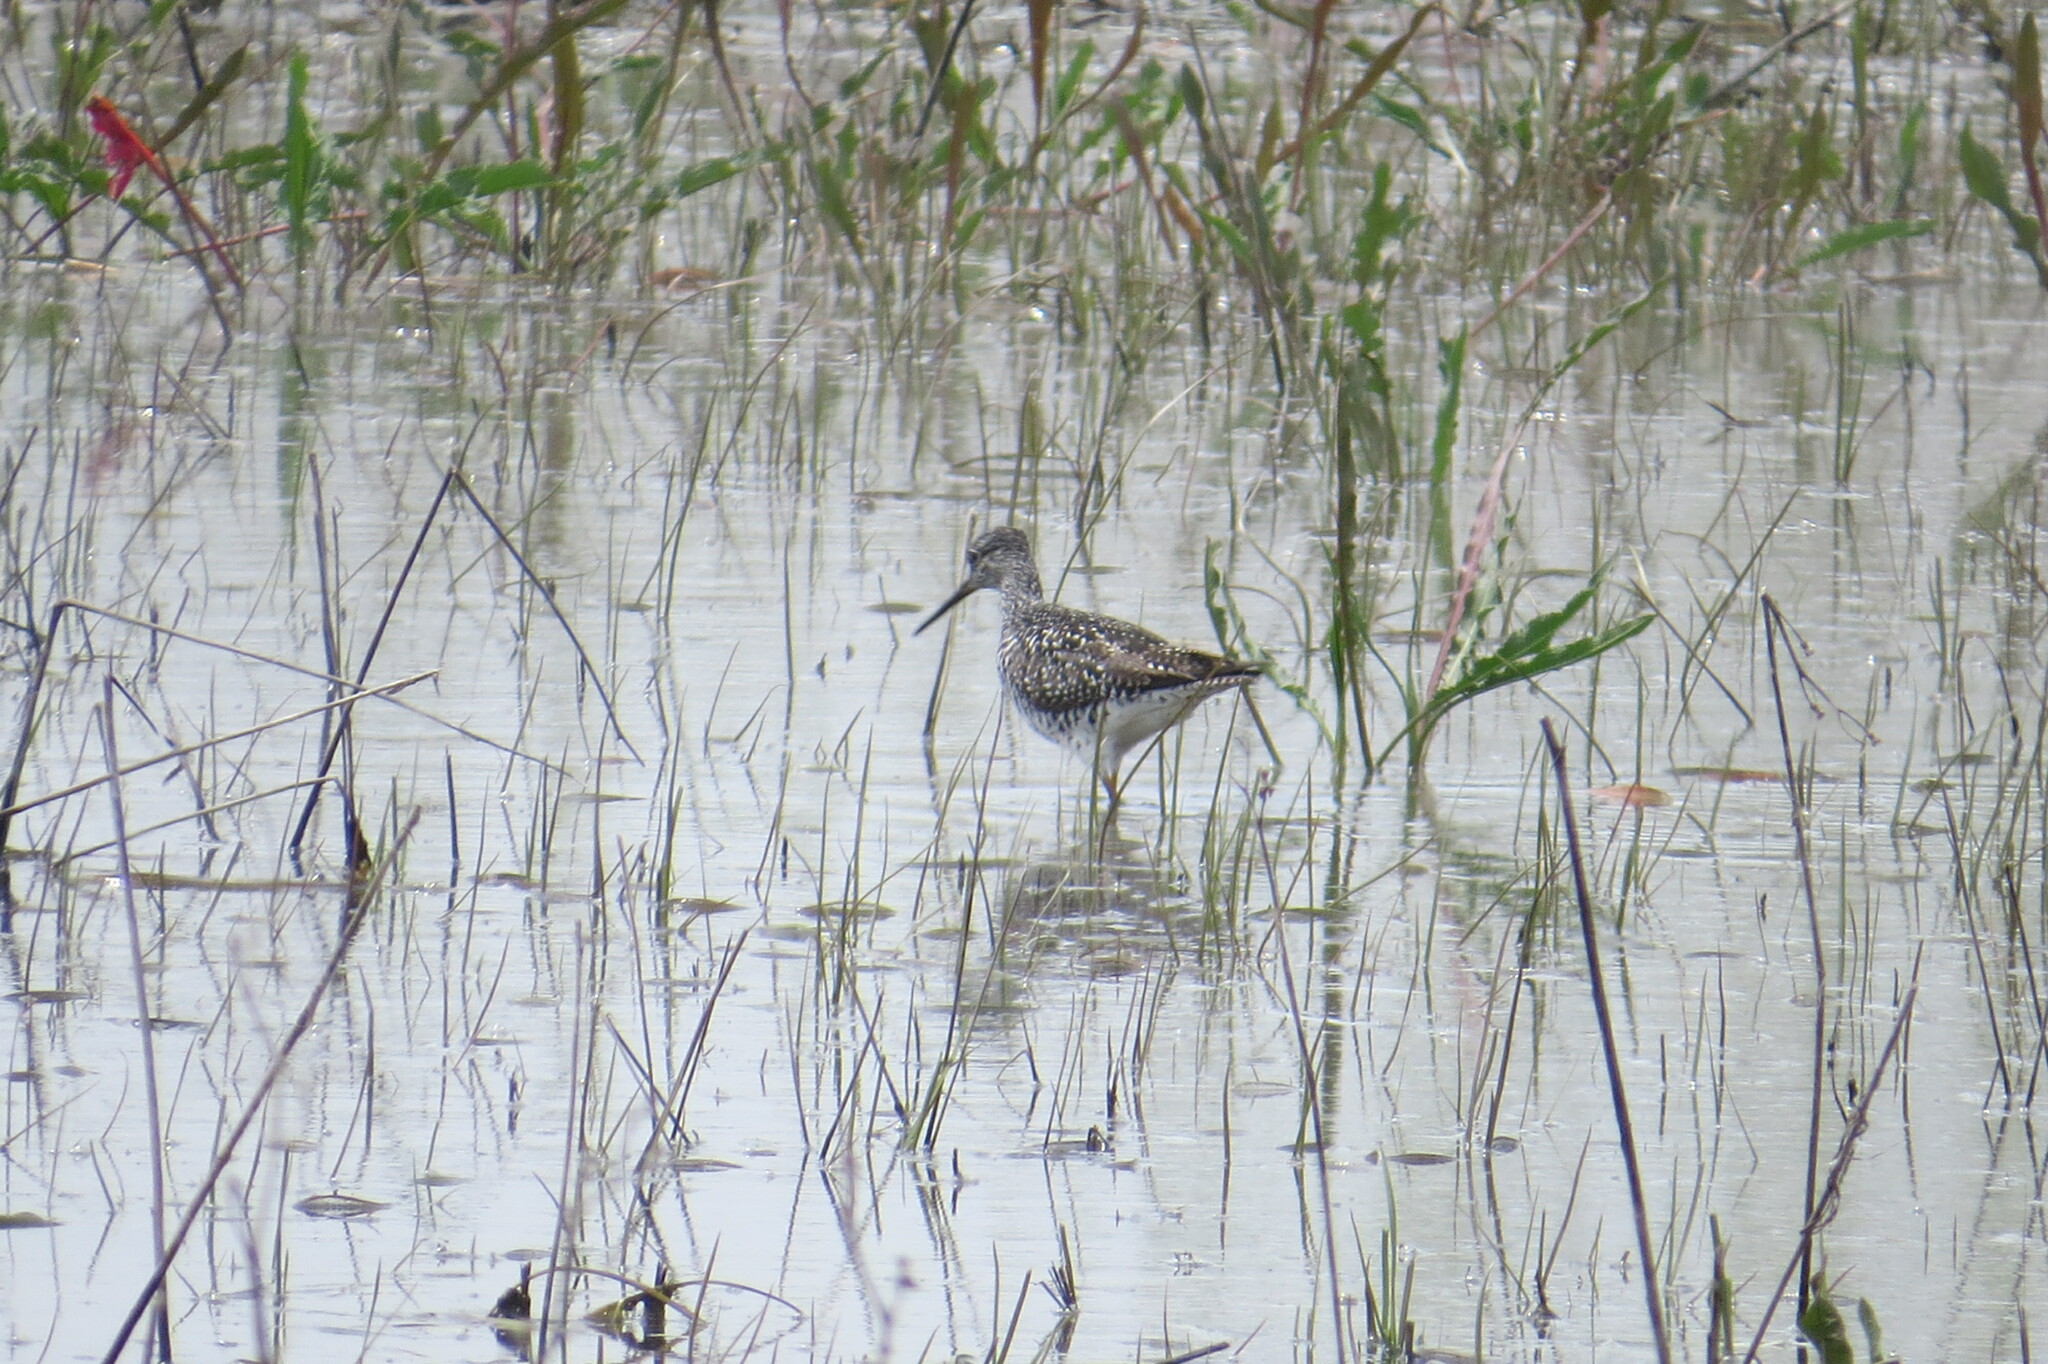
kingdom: Animalia
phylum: Chordata
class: Aves
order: Charadriiformes
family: Scolopacidae
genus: Tringa
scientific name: Tringa melanoleuca
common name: Greater yellowlegs
